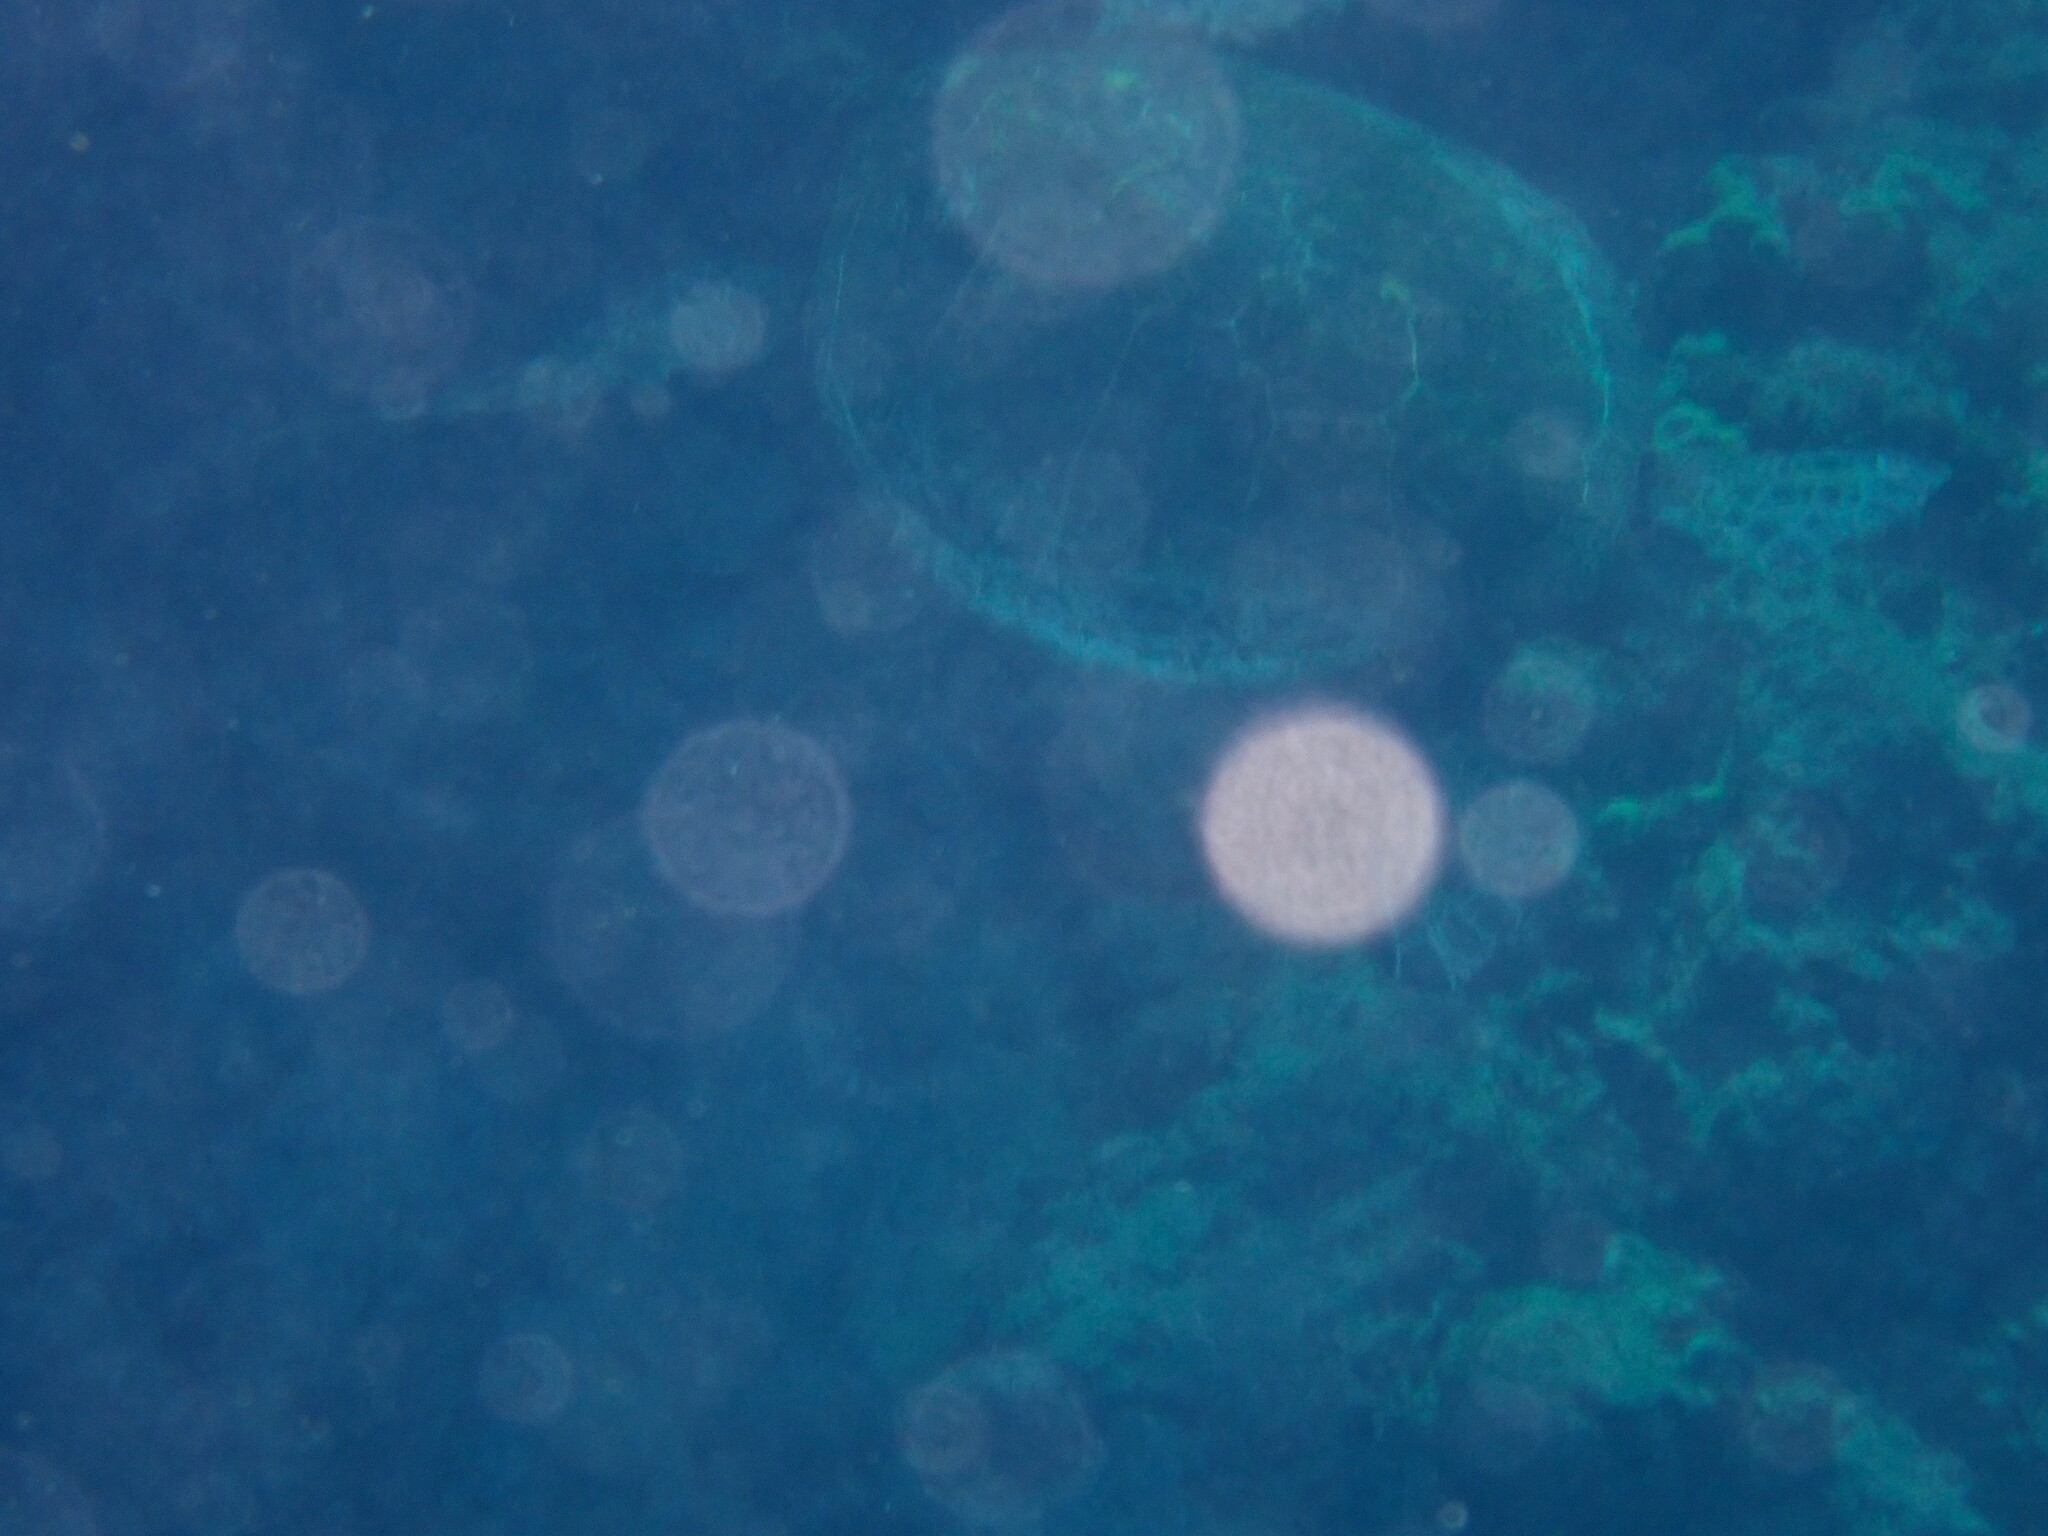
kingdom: Animalia
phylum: Chordata
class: Testudines
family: Cheloniidae
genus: Chelonia
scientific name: Chelonia mydas
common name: Green turtle
